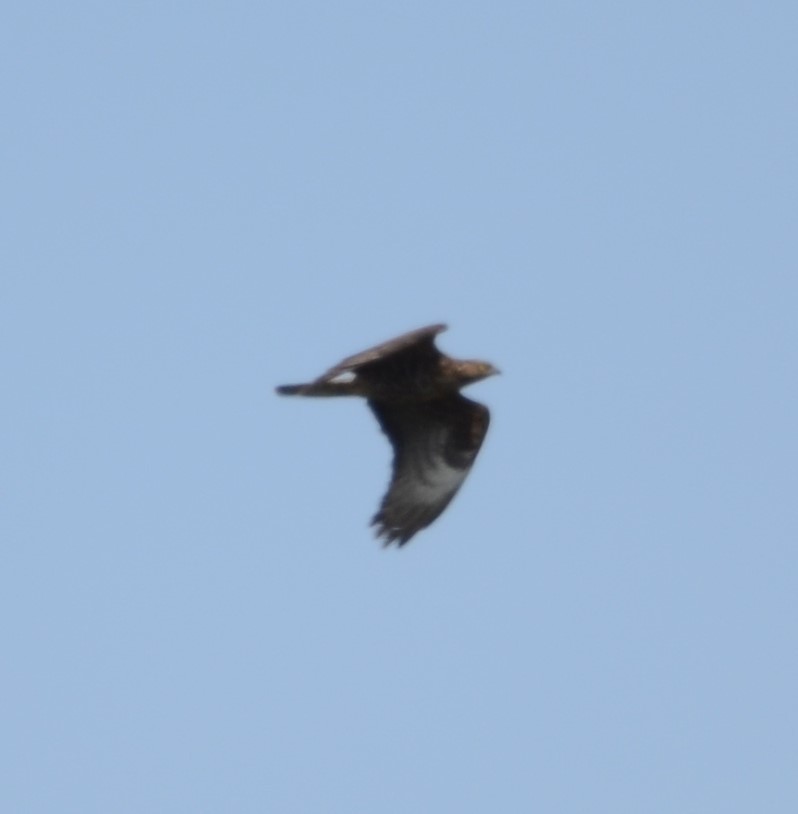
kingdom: Animalia
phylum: Chordata
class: Aves
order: Accipitriformes
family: Accipitridae
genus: Pernis
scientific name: Pernis apivorus
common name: European honey buzzard
